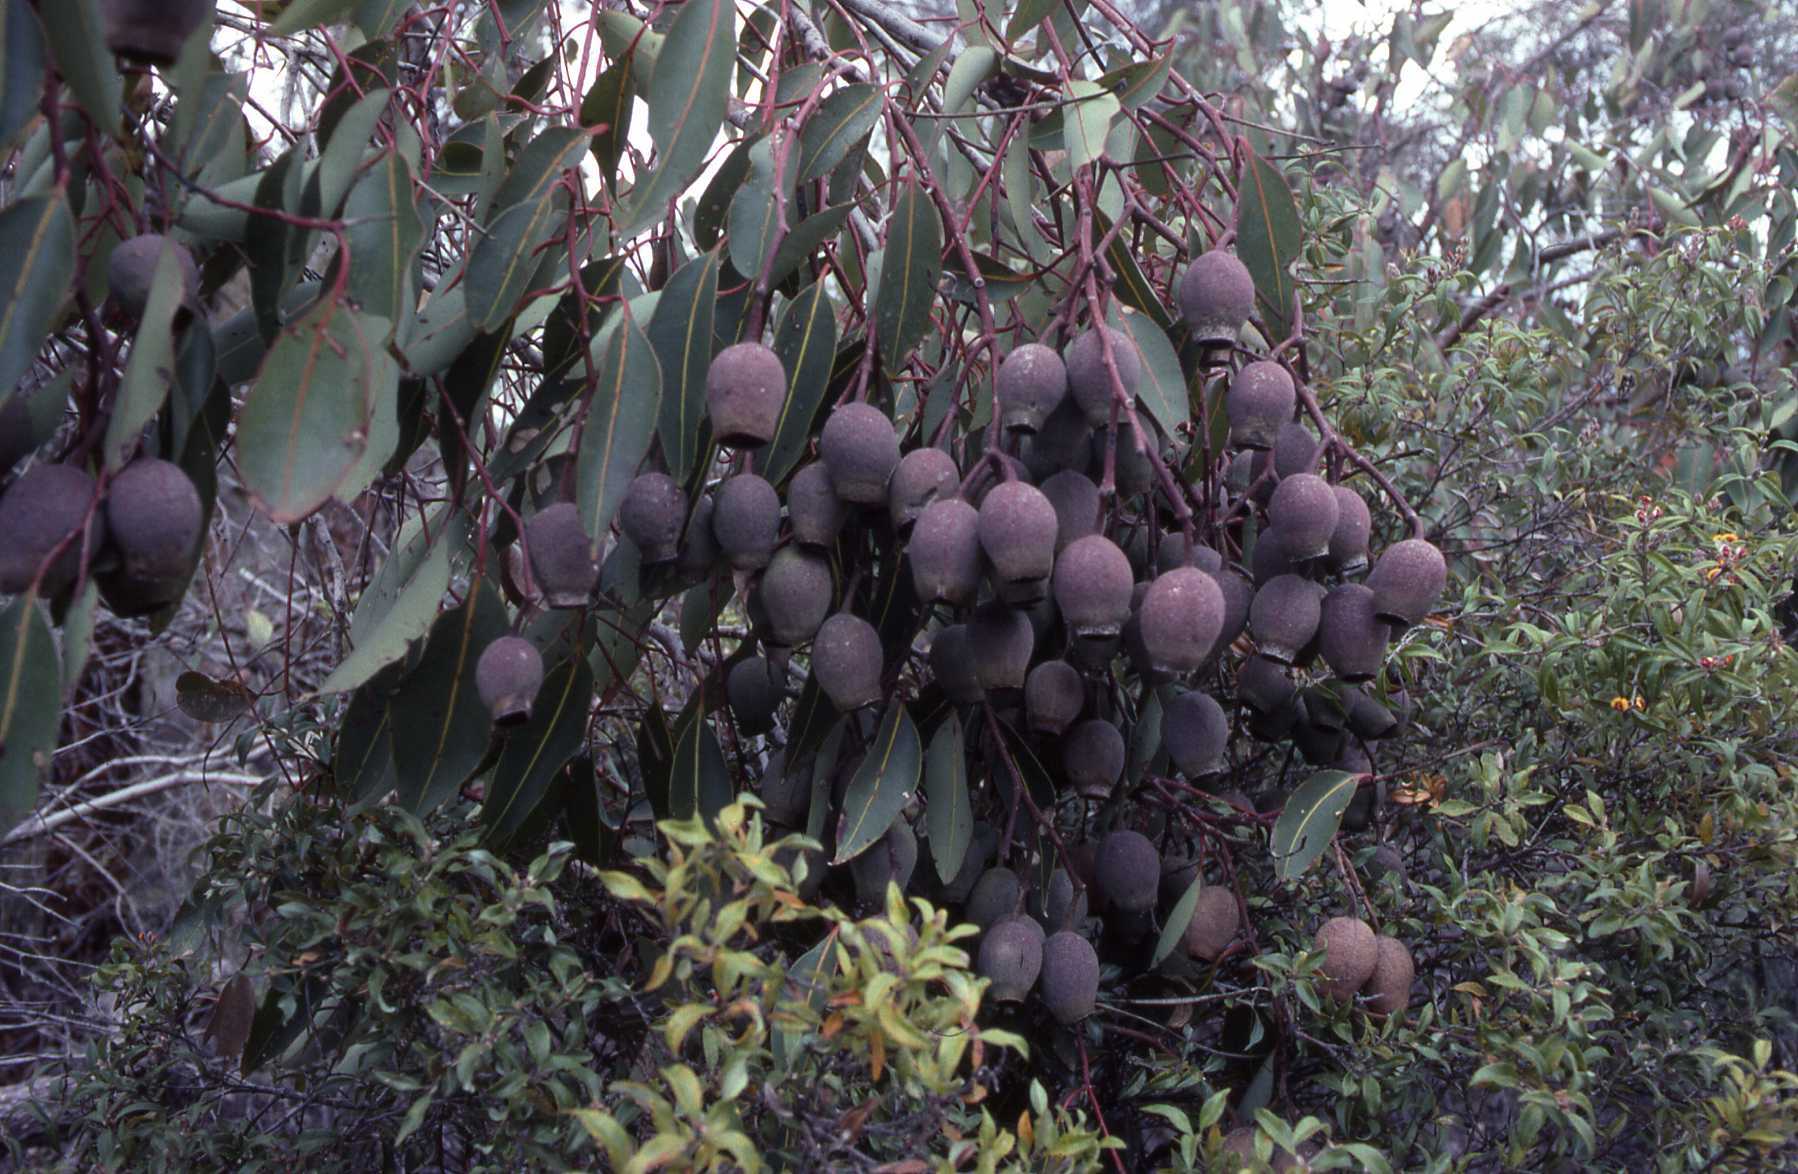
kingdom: Plantae
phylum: Tracheophyta
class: Magnoliopsida
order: Myrtales
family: Myrtaceae
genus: Corymbia
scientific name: Corymbia calophylla
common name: Marri
